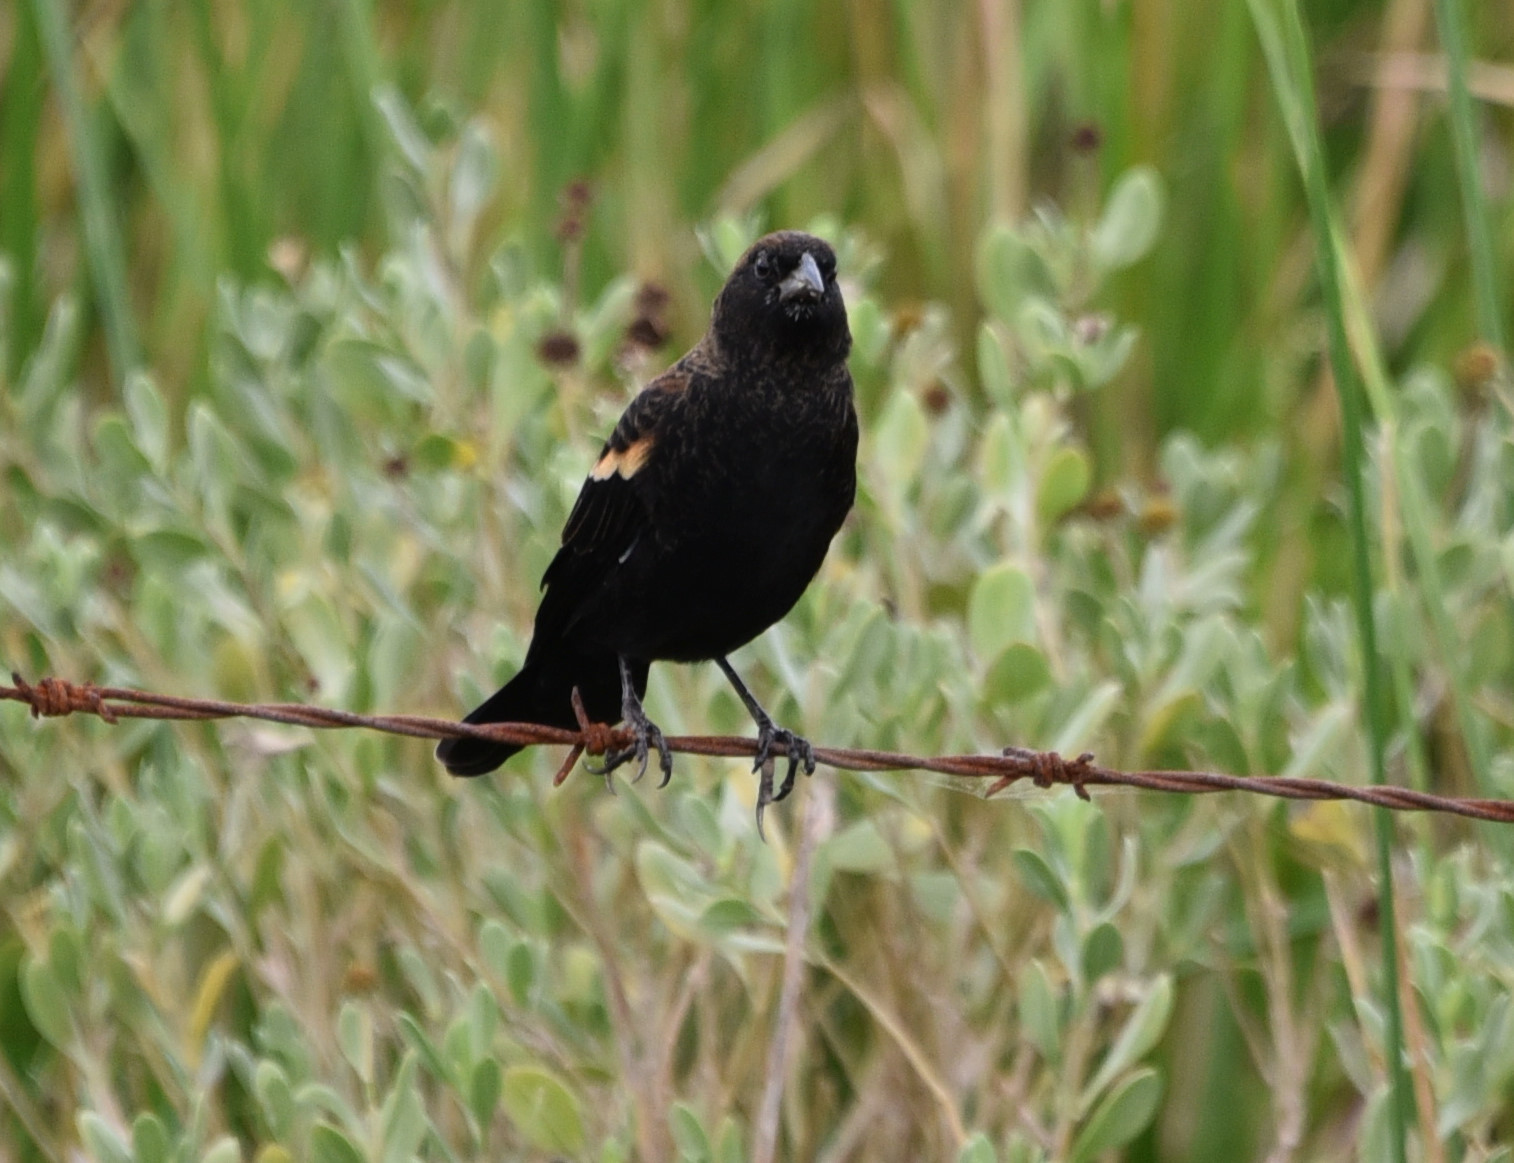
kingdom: Animalia
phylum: Chordata
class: Aves
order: Passeriformes
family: Icteridae
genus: Agelaius
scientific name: Agelaius phoeniceus
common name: Red-winged blackbird
